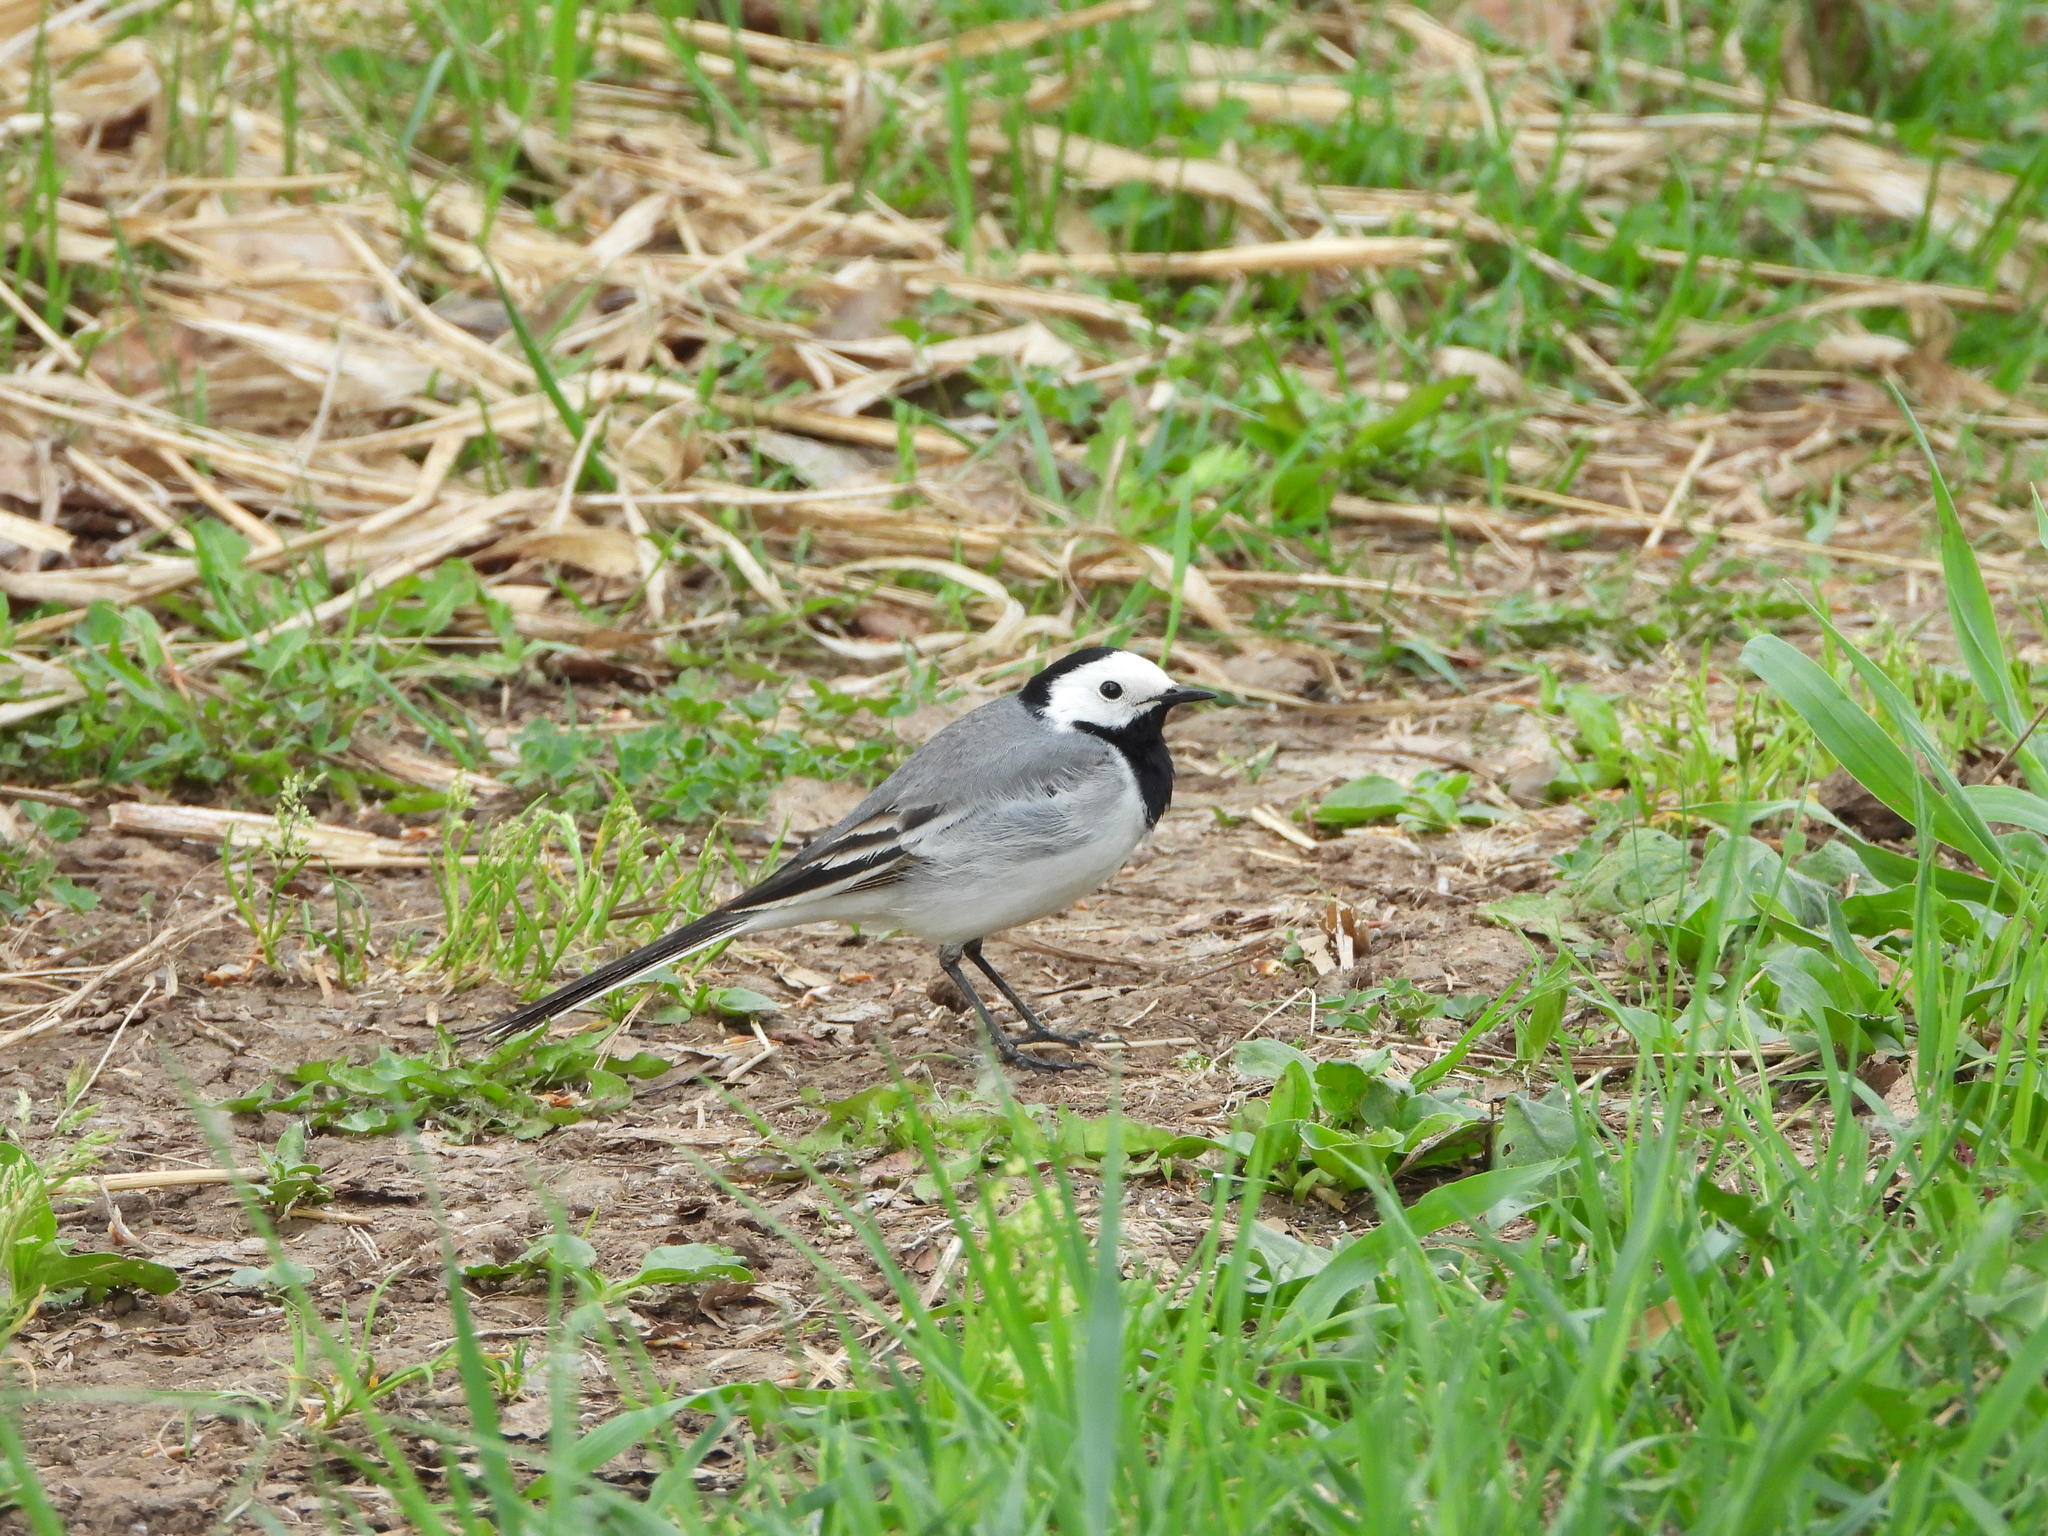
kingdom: Animalia
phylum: Chordata
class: Aves
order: Passeriformes
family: Motacillidae
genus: Motacilla
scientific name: Motacilla alba
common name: White wagtail
